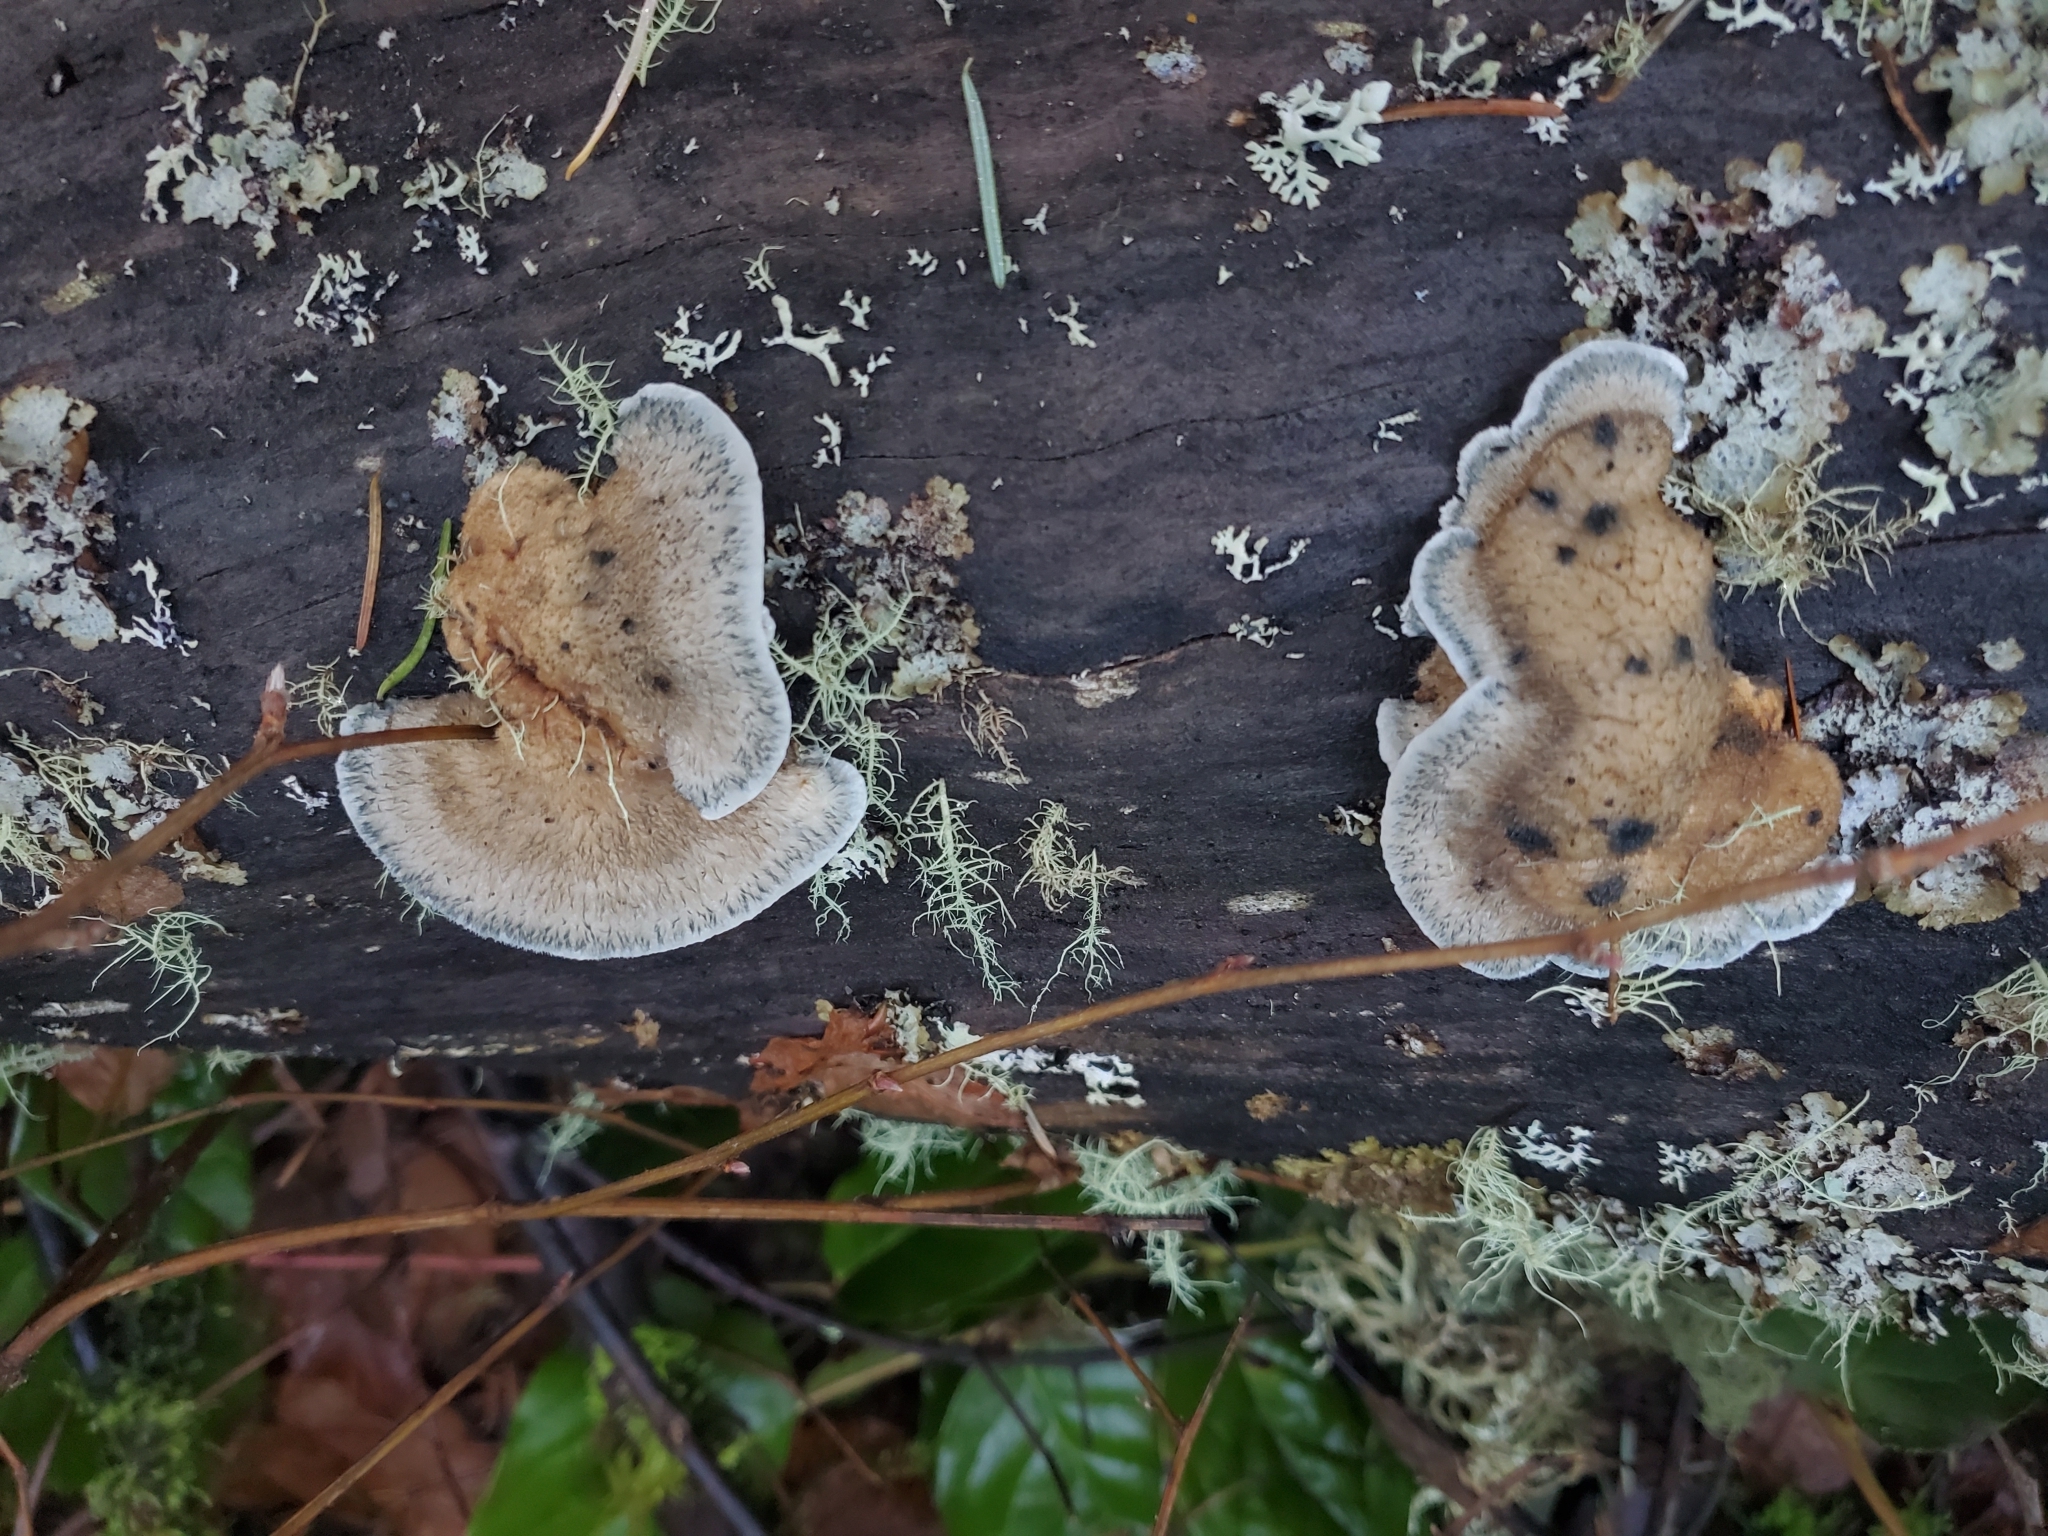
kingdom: Fungi
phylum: Basidiomycota
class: Agaricomycetes
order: Polyporales
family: Polyporaceae
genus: Cyanosporus
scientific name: Cyanosporus caesius
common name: Blue cheese polypore
